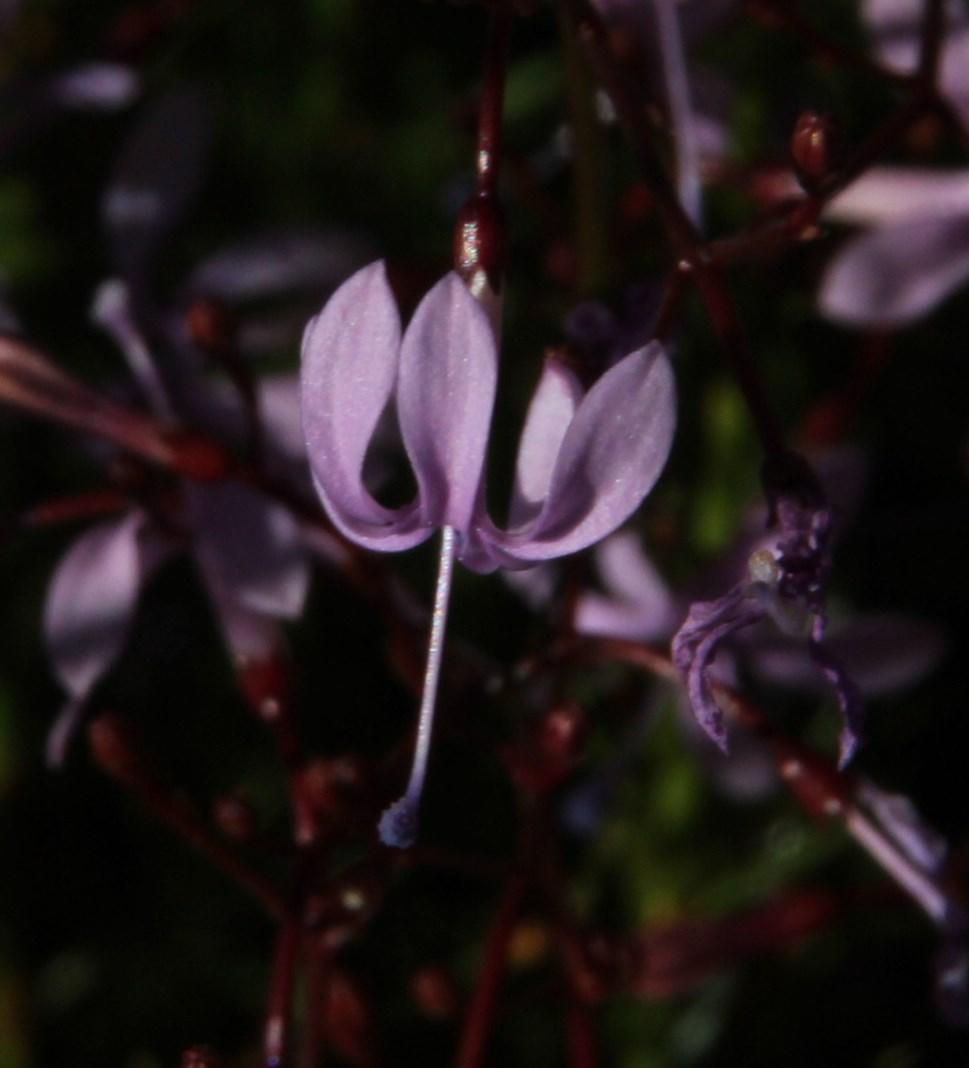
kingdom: Plantae
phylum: Tracheophyta
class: Magnoliopsida
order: Asterales
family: Campanulaceae
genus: Prismatocarpus
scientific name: Prismatocarpus diffusus
